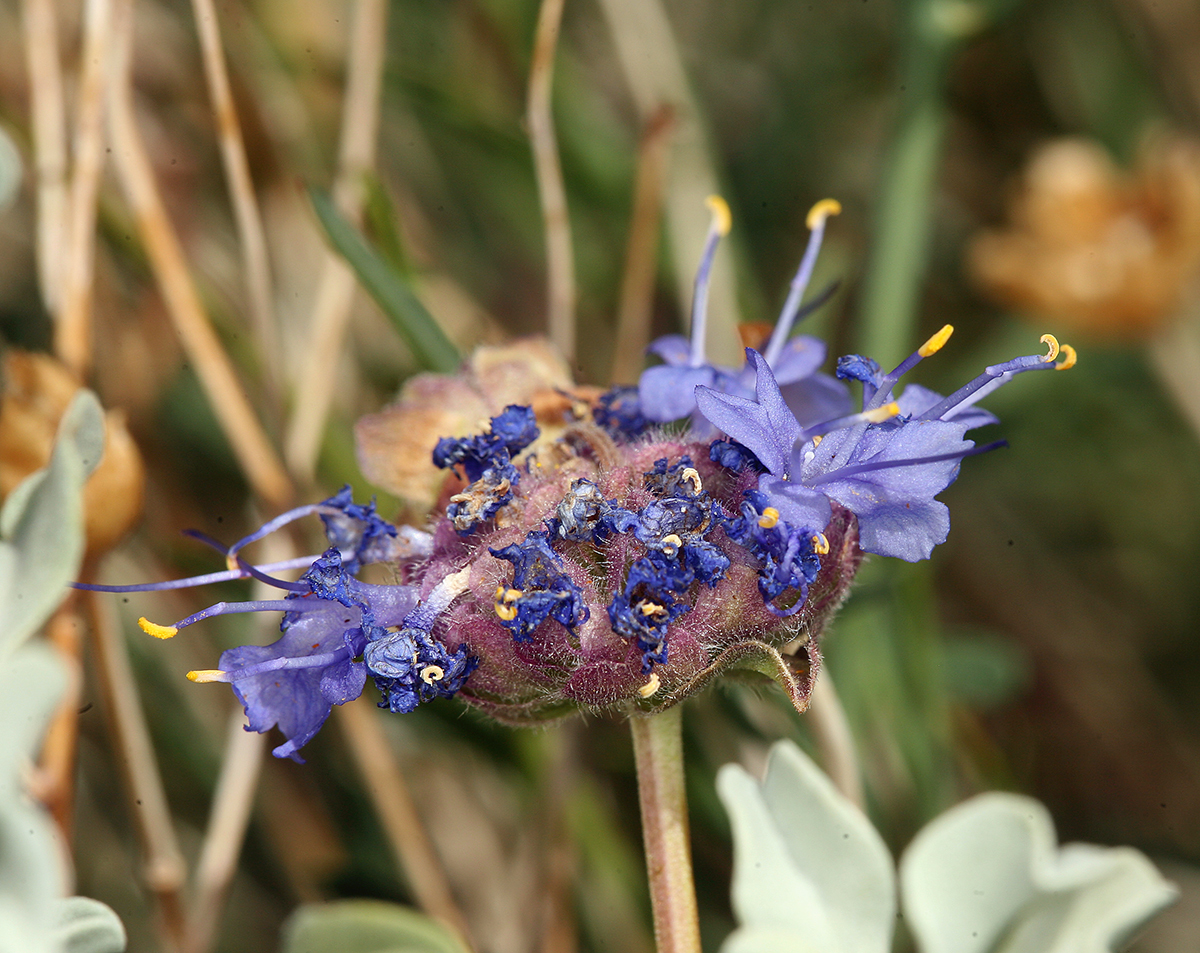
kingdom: Plantae
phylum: Tracheophyta
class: Magnoliopsida
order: Lamiales
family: Lamiaceae
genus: Salvia
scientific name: Salvia dorrii
